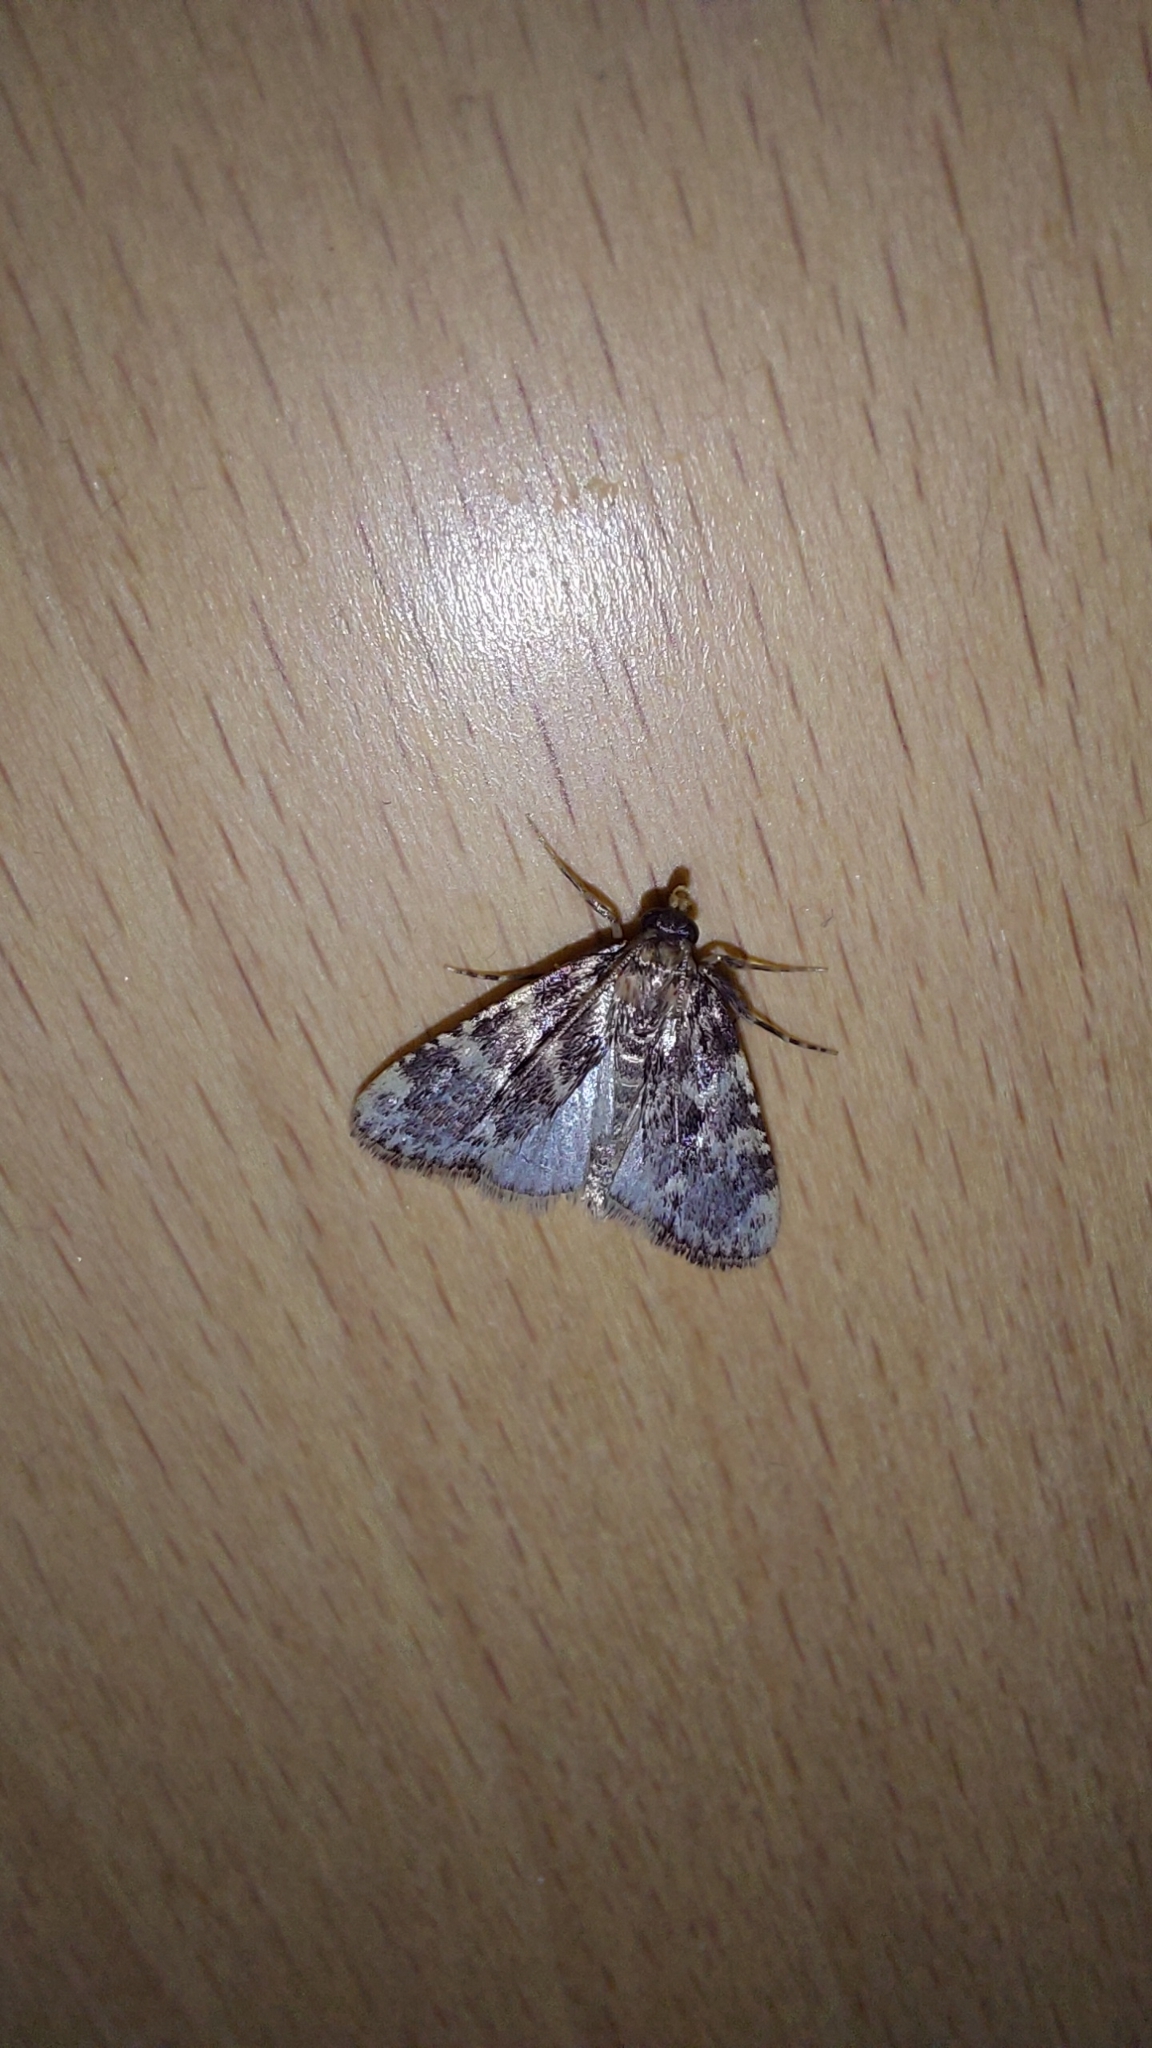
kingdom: Animalia
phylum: Arthropoda
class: Insecta
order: Lepidoptera
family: Pyralidae
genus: Aglossa
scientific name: Aglossa caprealis
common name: Small tabby
